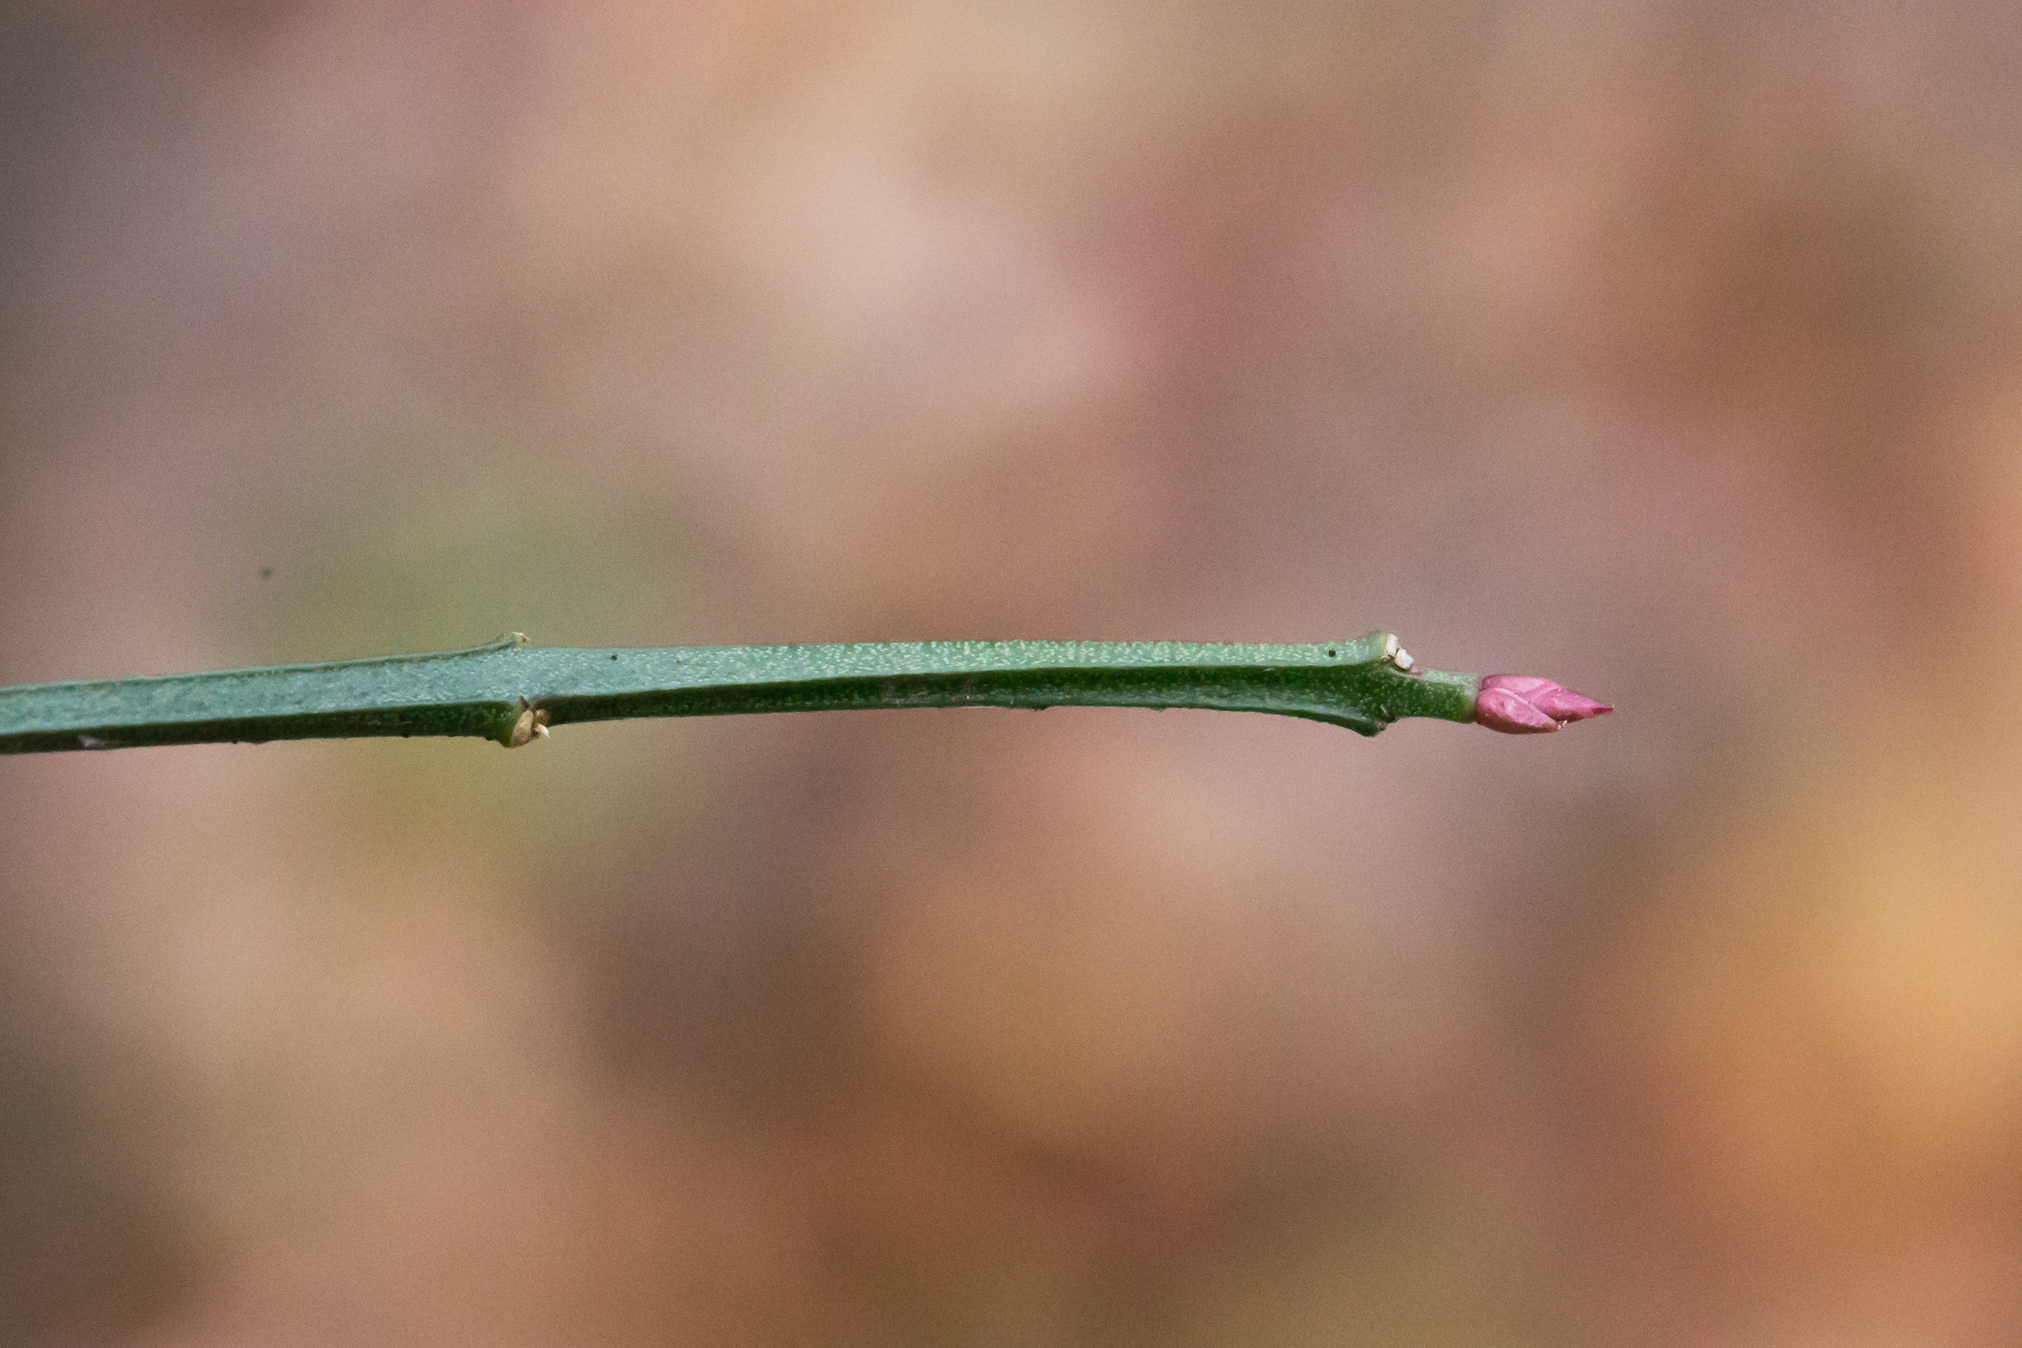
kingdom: Plantae
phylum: Tracheophyta
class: Magnoliopsida
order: Celastrales
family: Celastraceae
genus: Euonymus
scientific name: Euonymus americanus
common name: Bursting-heart
